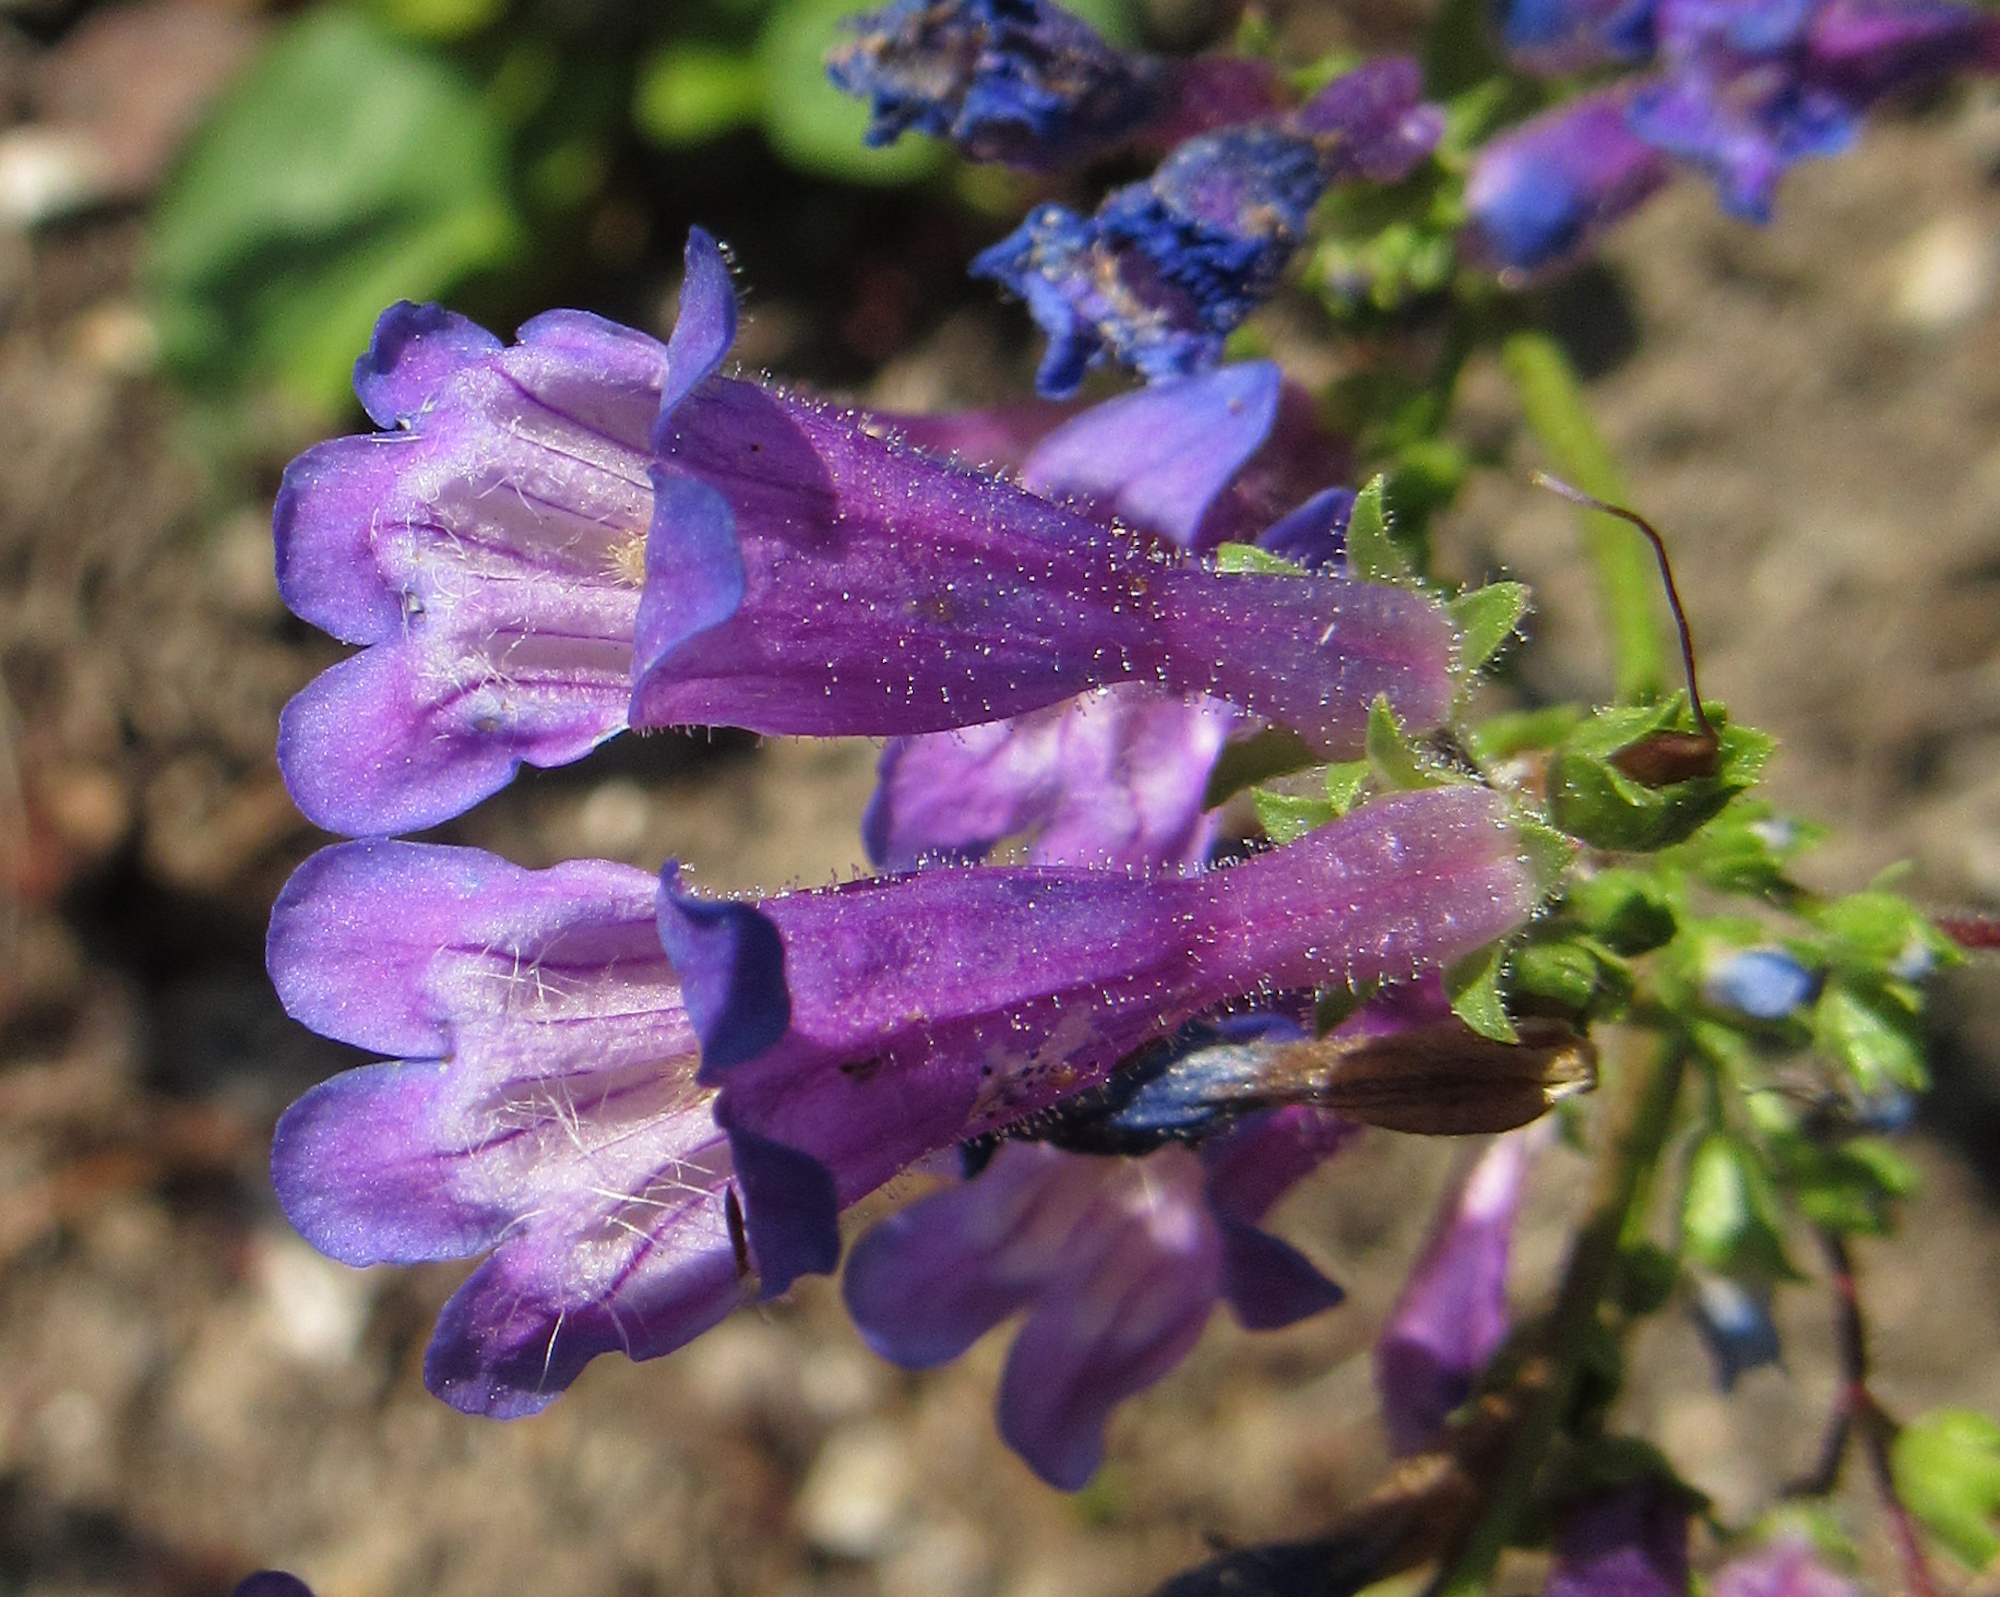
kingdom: Plantae
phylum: Tracheophyta
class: Magnoliopsida
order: Lamiales
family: Plantaginaceae
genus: Penstemon
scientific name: Penstemon wilcoxii
